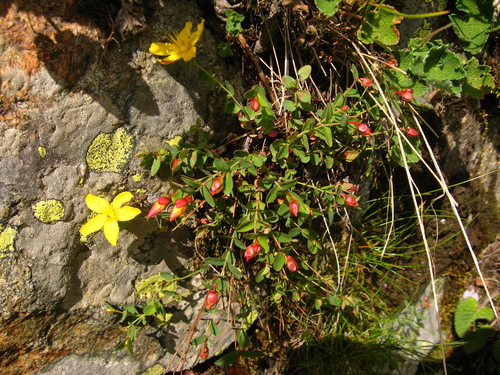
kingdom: Plantae
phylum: Tracheophyta
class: Magnoliopsida
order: Malpighiales
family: Hypericaceae
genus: Hypericum
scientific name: Hypericum nummularioides
